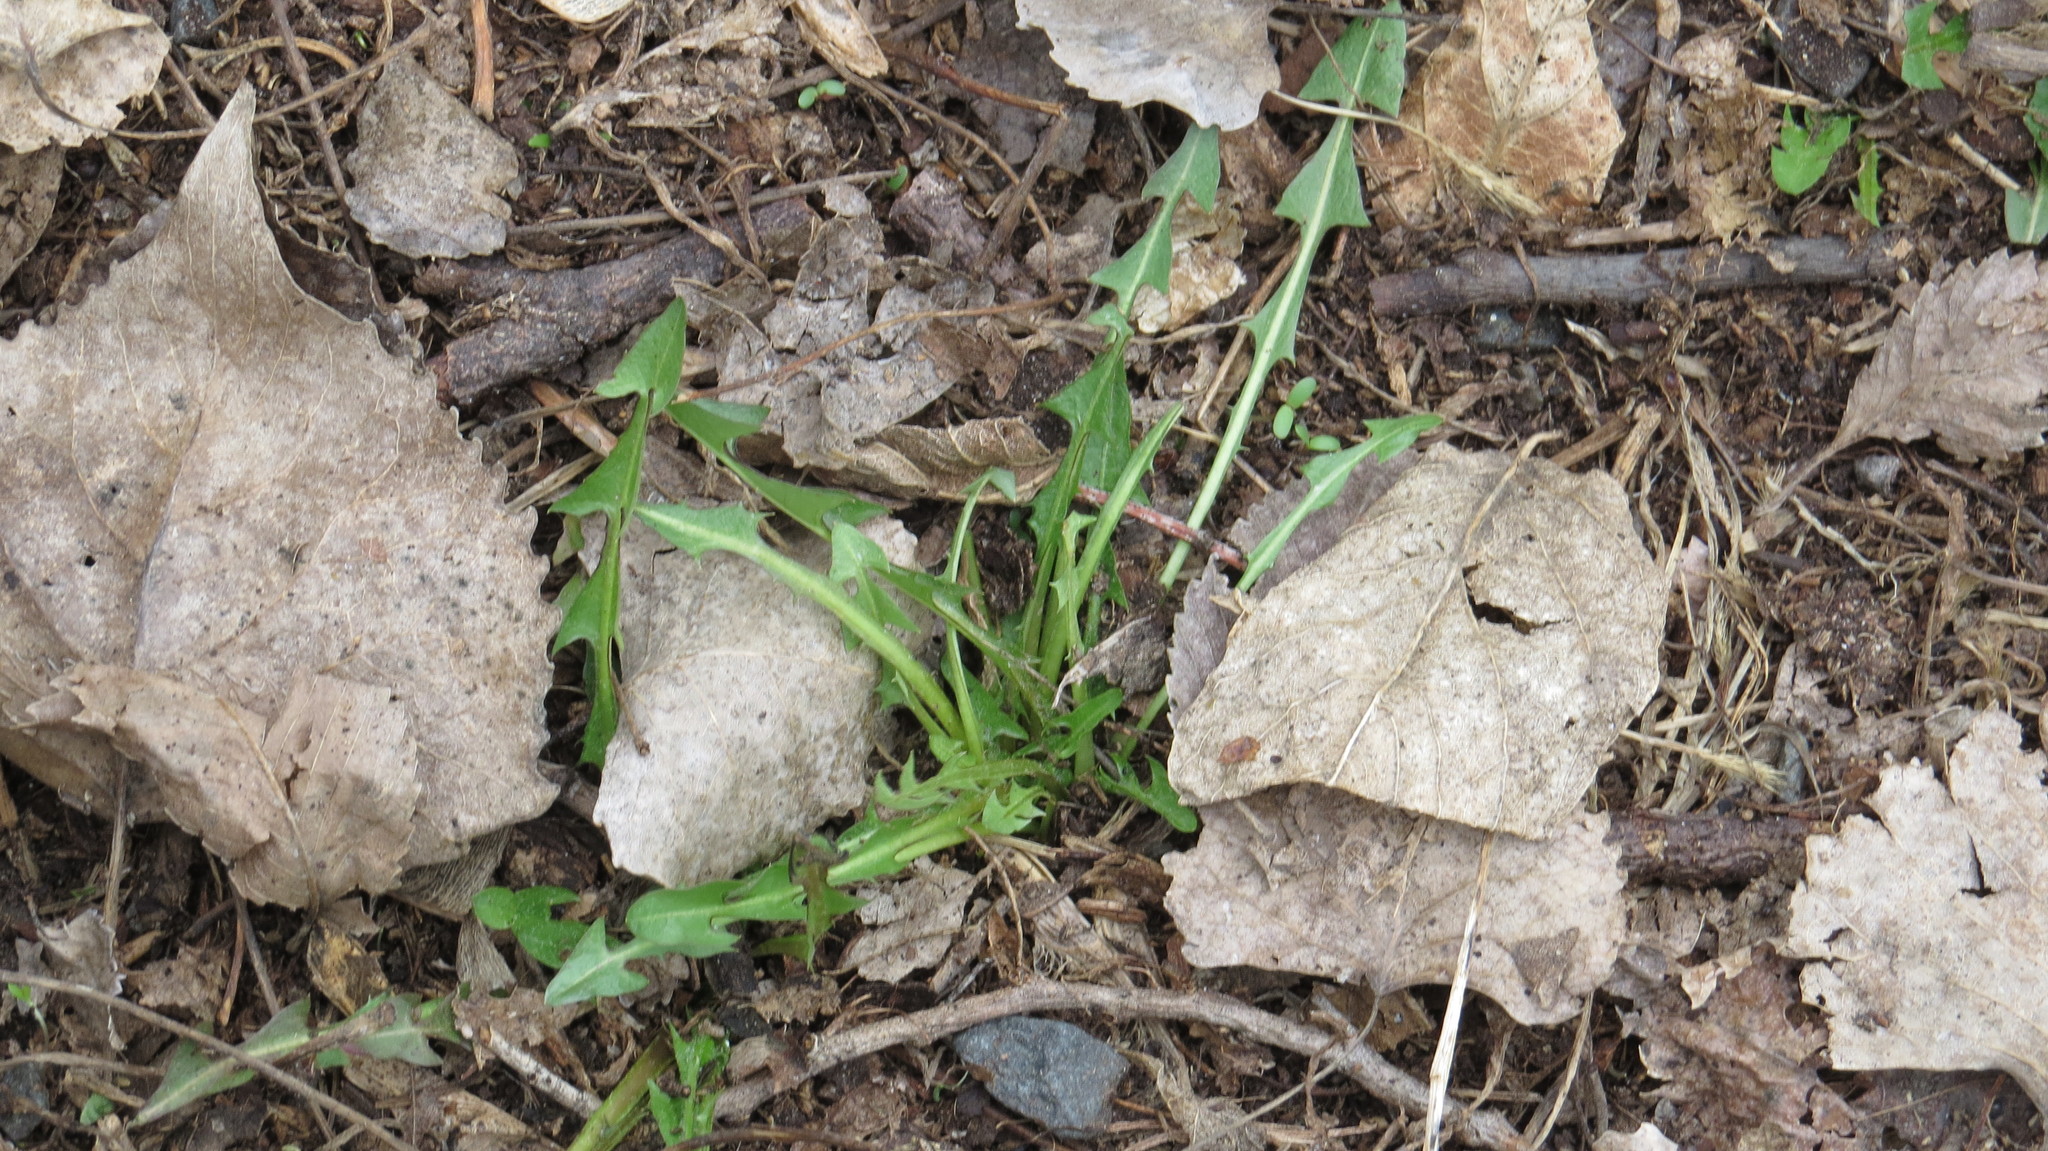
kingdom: Plantae
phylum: Tracheophyta
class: Magnoliopsida
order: Asterales
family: Asteraceae
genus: Taraxacum
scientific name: Taraxacum officinale
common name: Common dandelion
